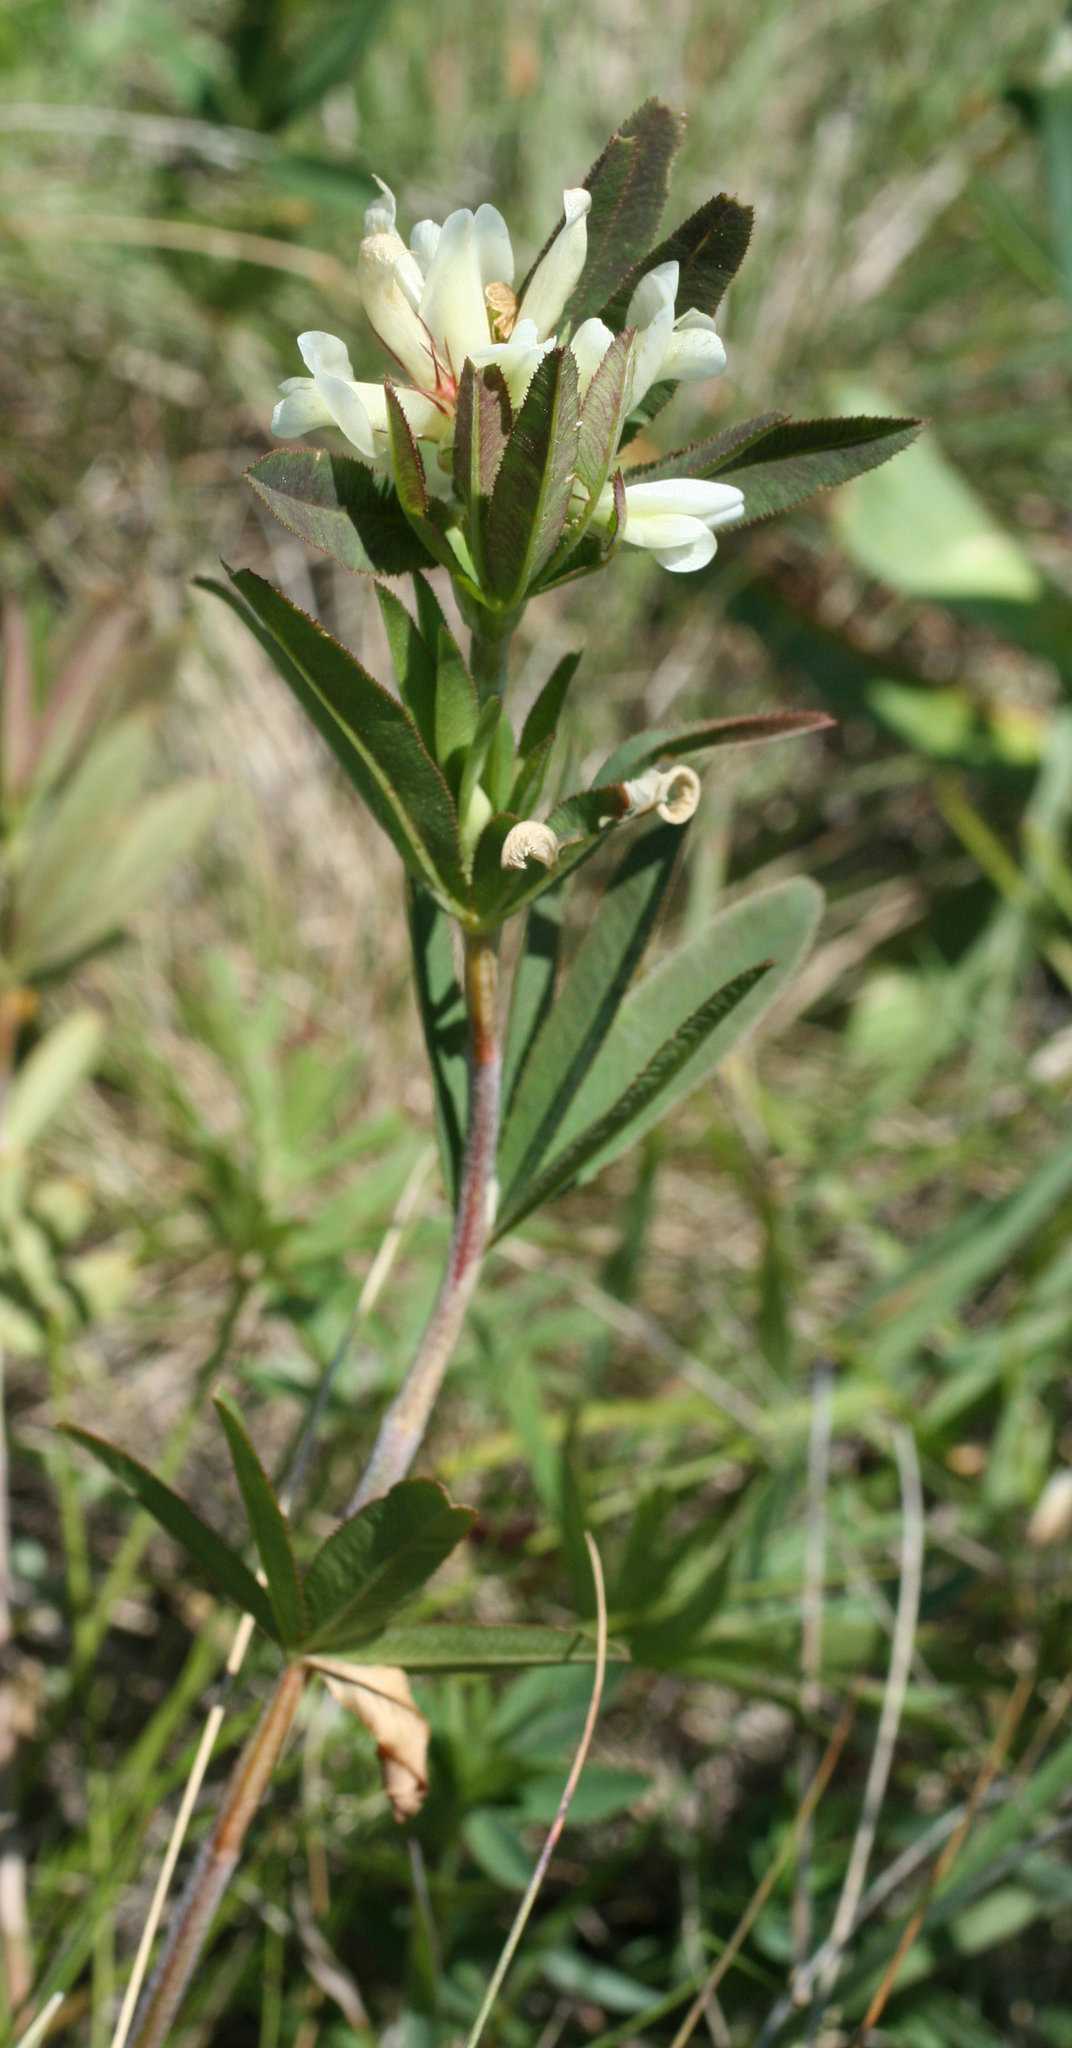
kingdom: Plantae
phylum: Tracheophyta
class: Magnoliopsida
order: Fabales
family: Fabaceae
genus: Trifolium
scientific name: Trifolium lupinaster
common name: Lupine clover
